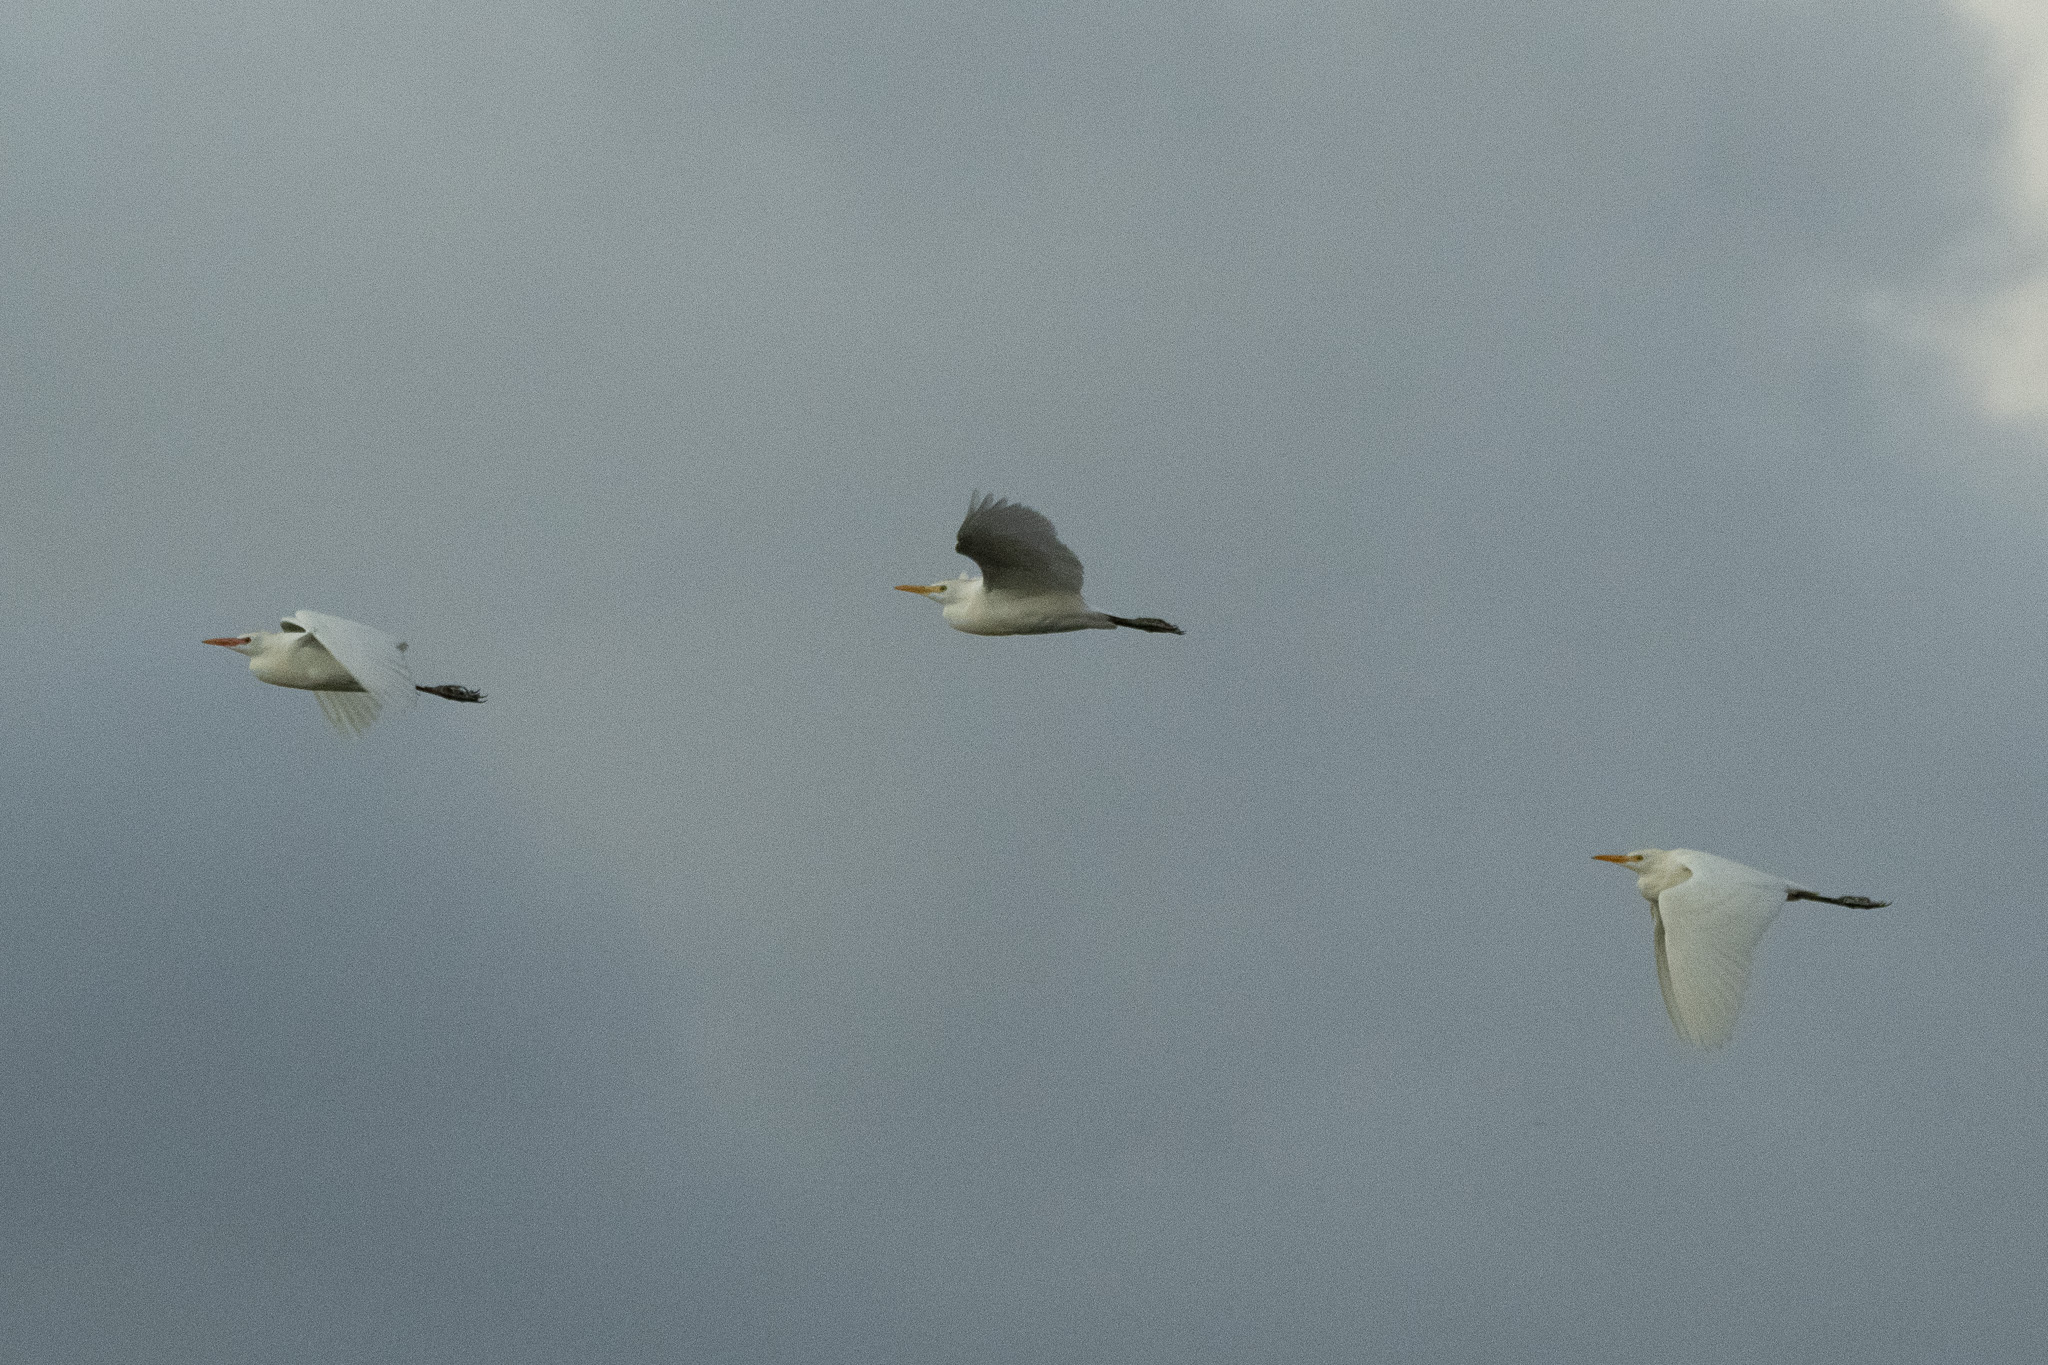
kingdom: Animalia
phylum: Chordata
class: Aves
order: Pelecaniformes
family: Ardeidae
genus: Bubulcus
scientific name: Bubulcus ibis
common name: Cattle egret
